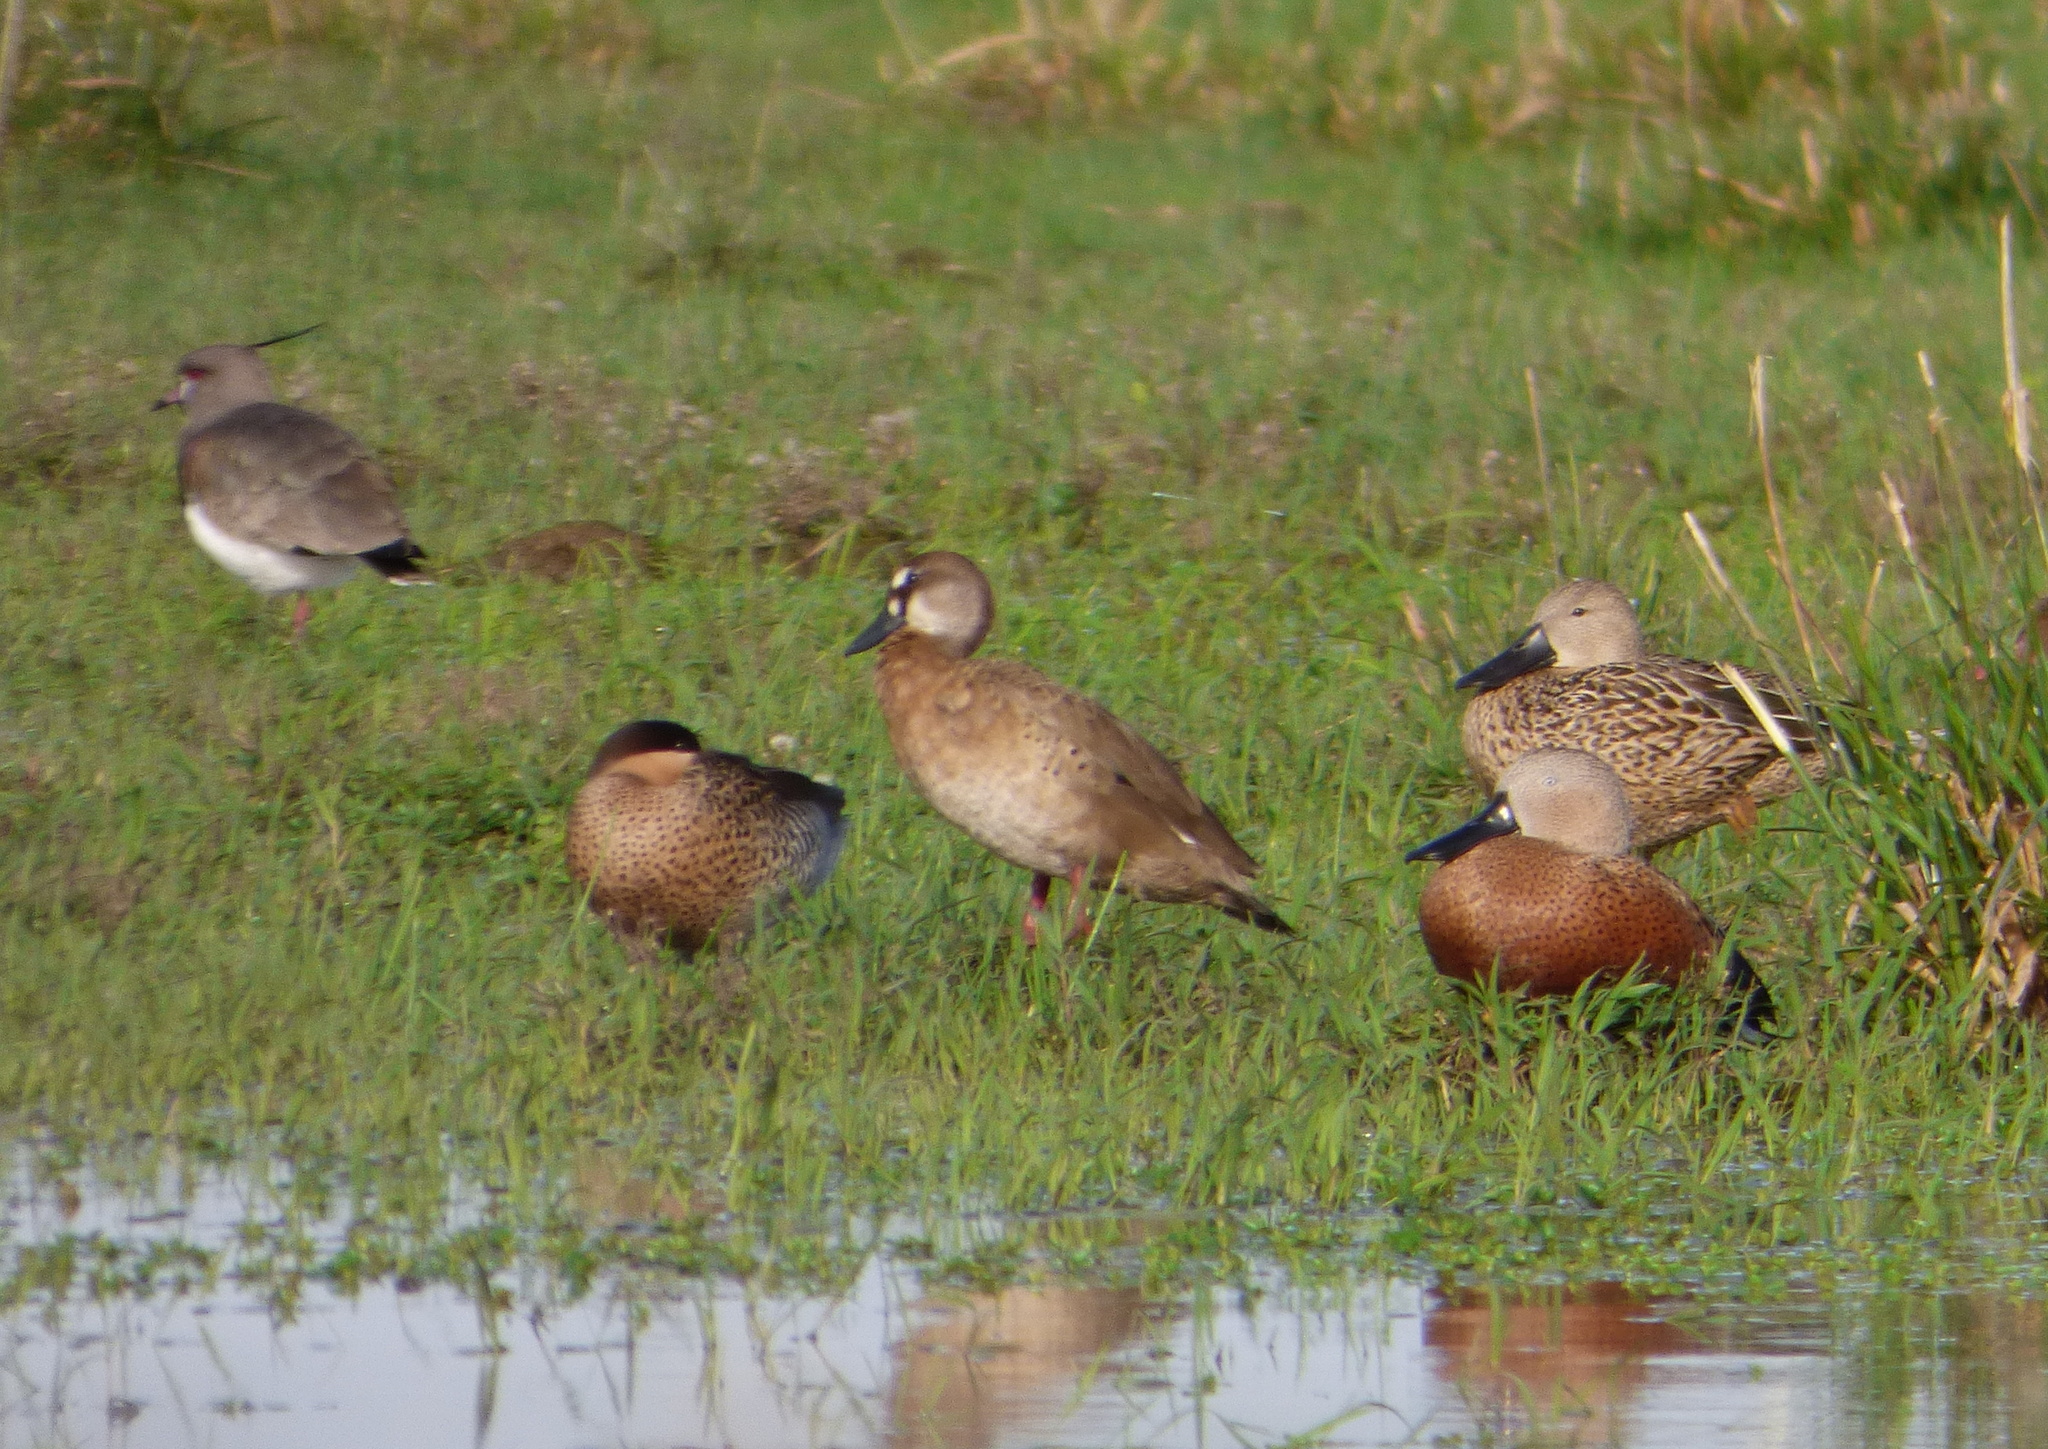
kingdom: Animalia
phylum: Chordata
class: Aves
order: Anseriformes
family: Anatidae
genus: Amazonetta
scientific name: Amazonetta brasiliensis
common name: Brazilian teal
